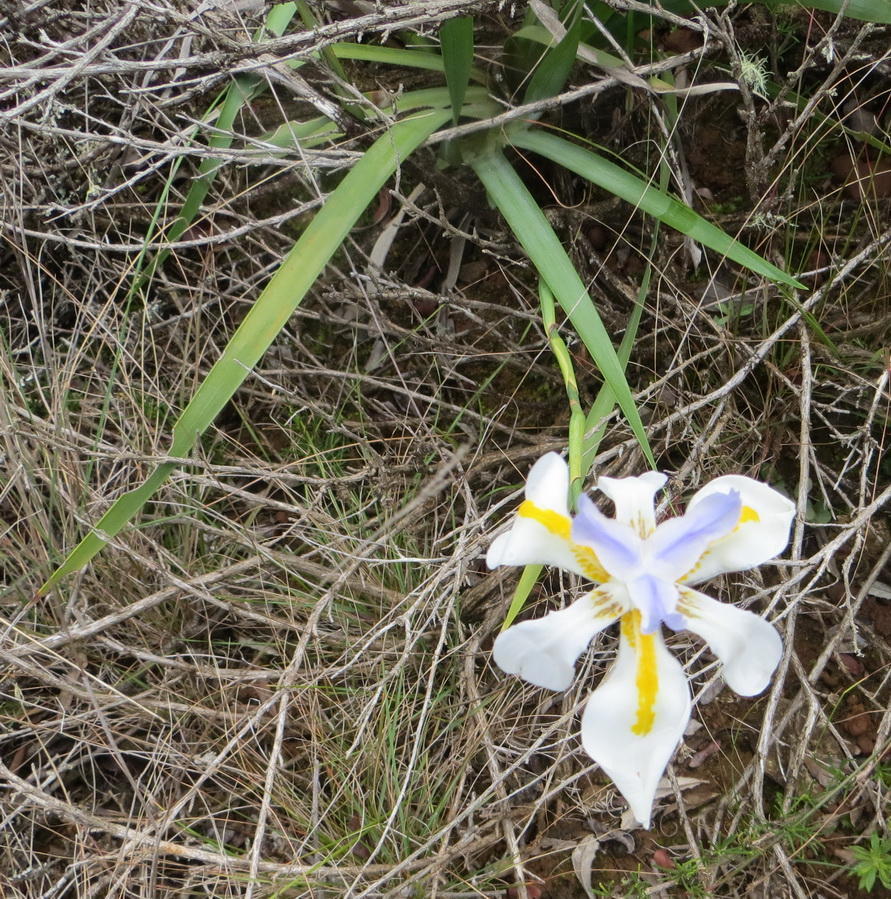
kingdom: Plantae
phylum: Tracheophyta
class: Liliopsida
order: Asparagales
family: Iridaceae
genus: Dietes
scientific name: Dietes grandiflora
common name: Wild iris
